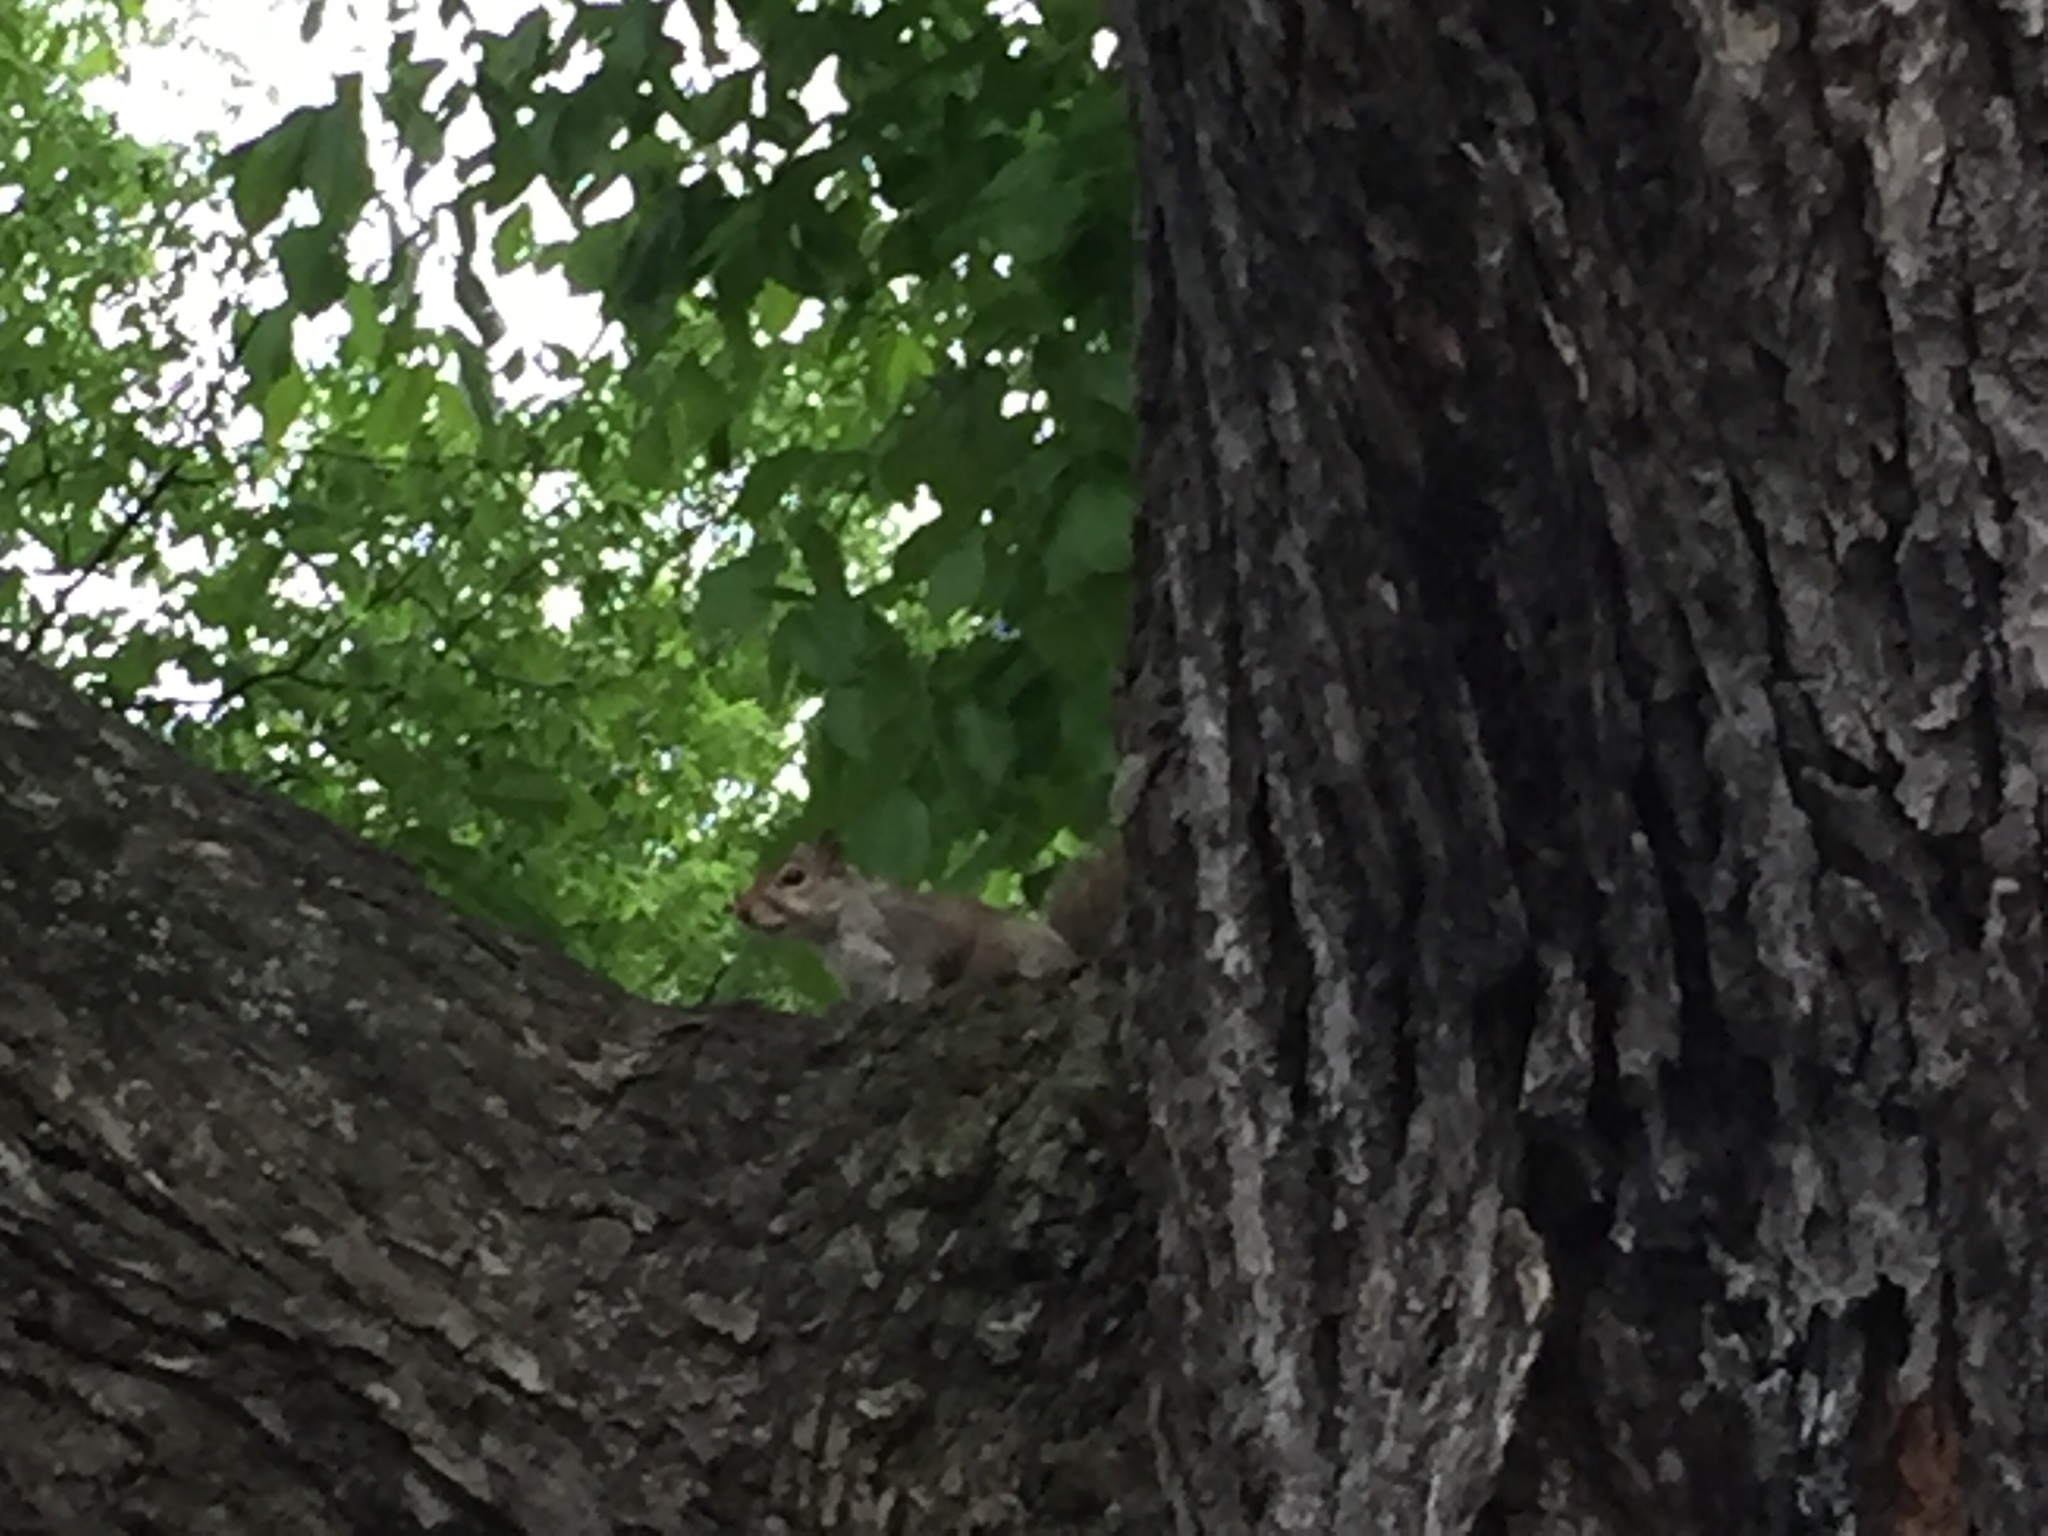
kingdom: Animalia
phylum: Chordata
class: Mammalia
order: Rodentia
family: Sciuridae
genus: Sciurus
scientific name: Sciurus carolinensis
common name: Eastern gray squirrel
